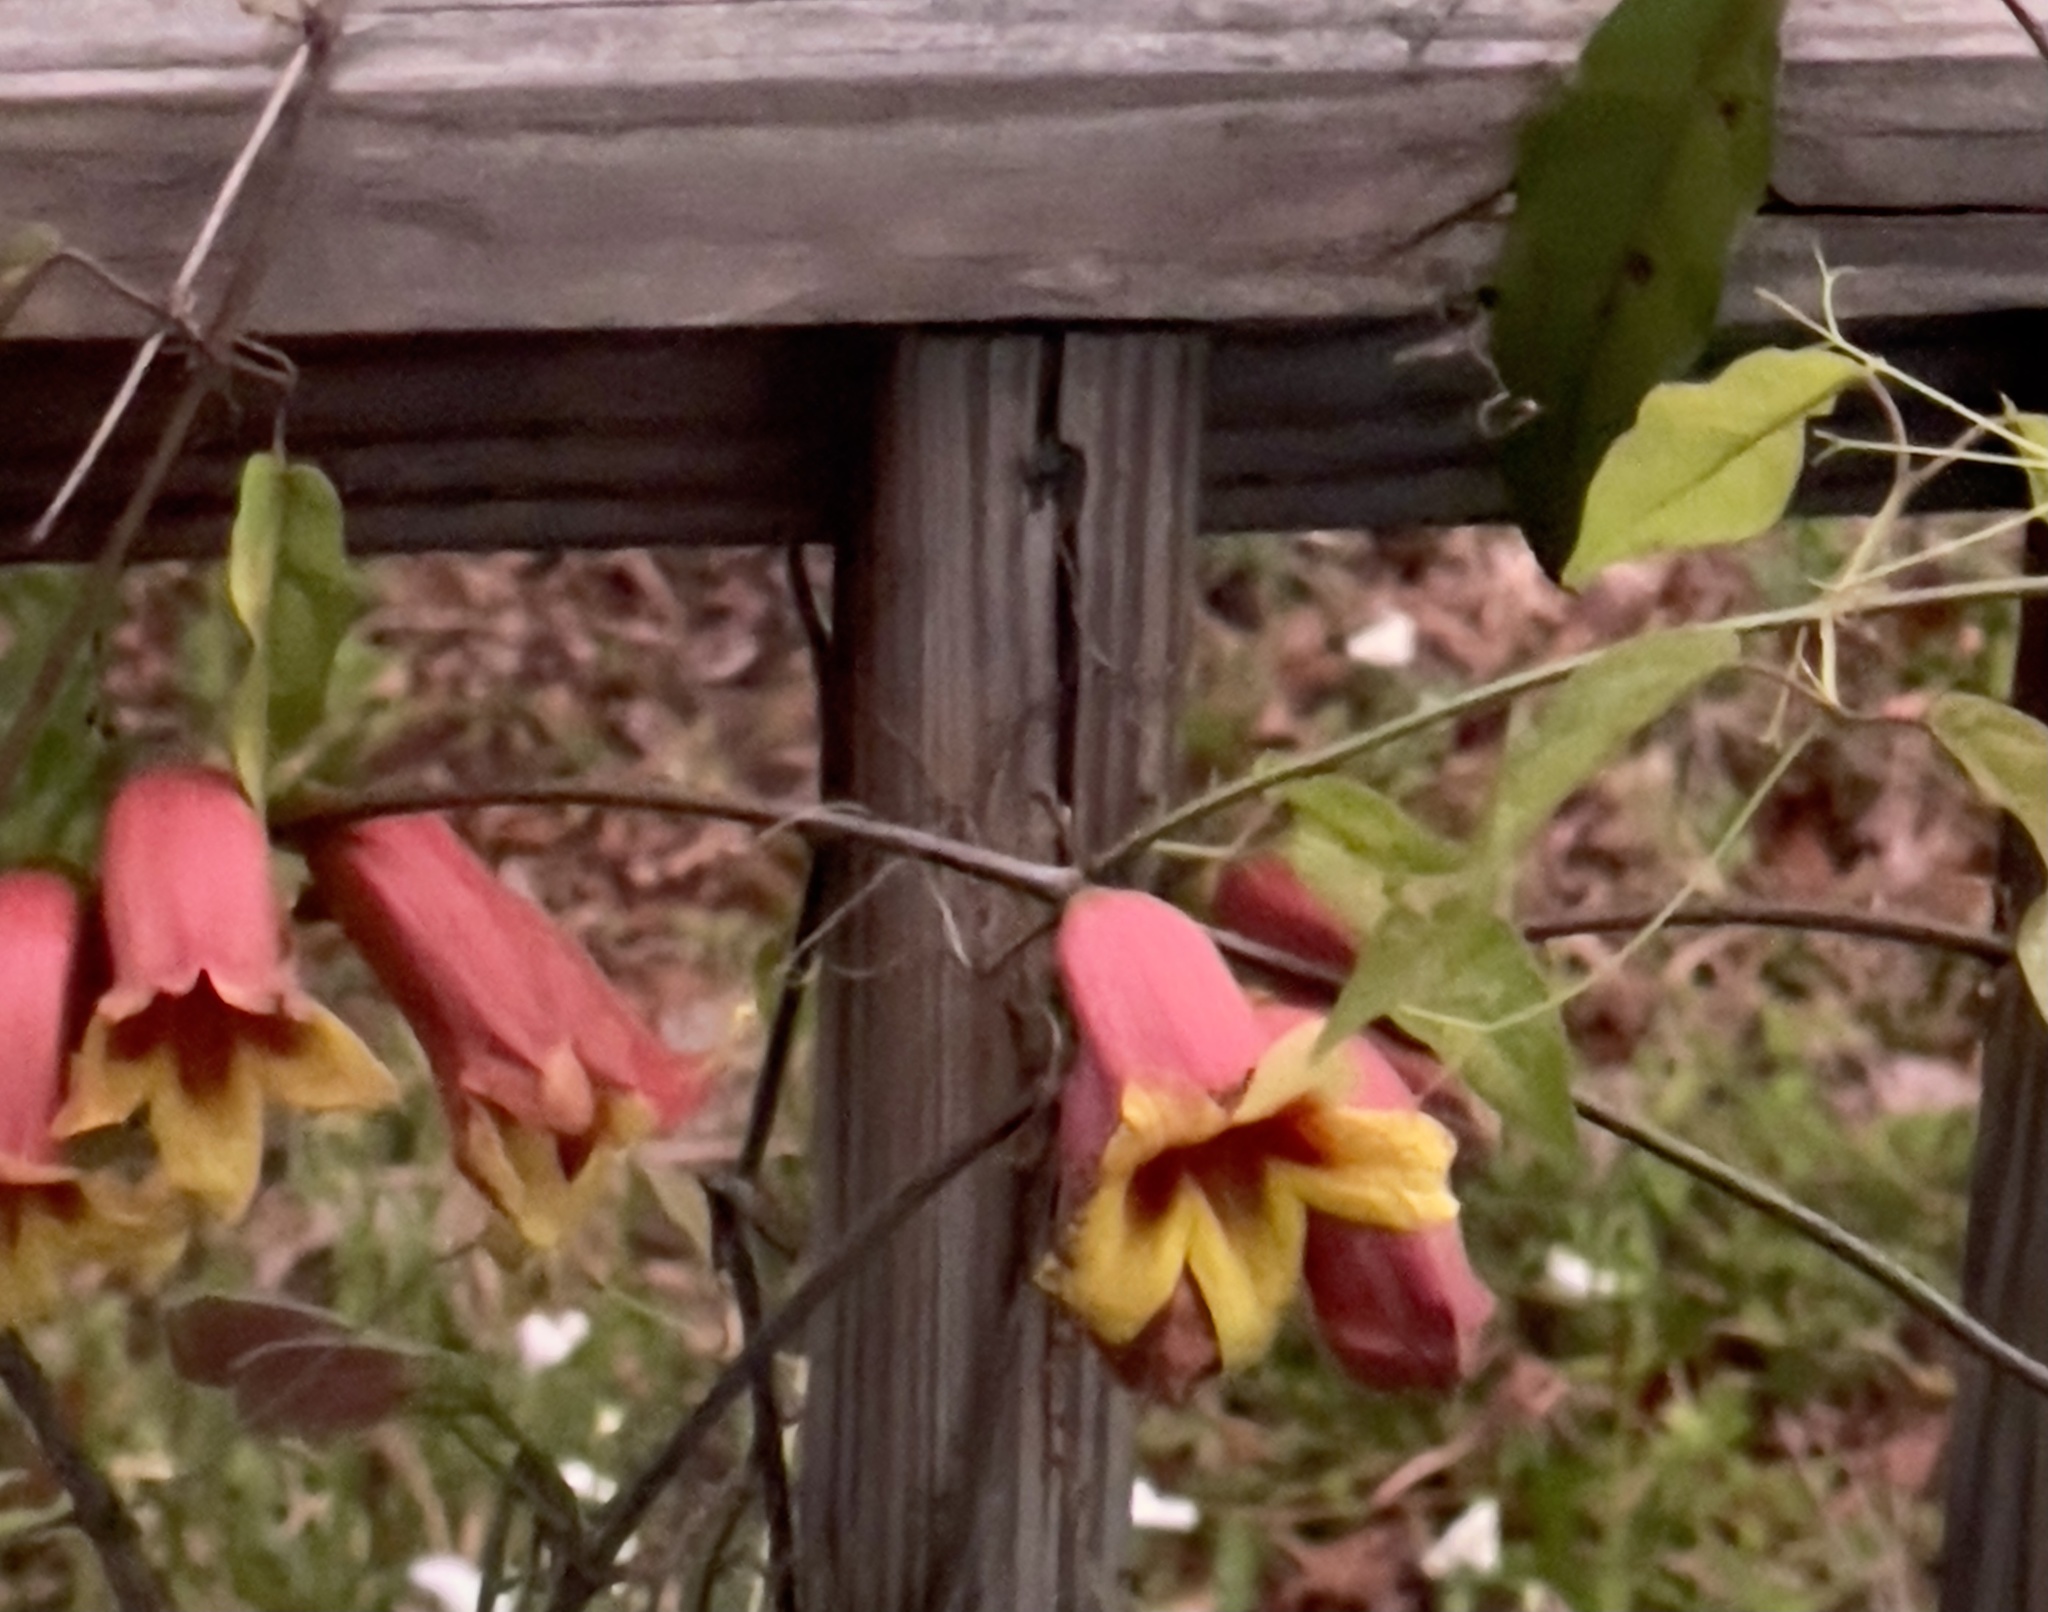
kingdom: Plantae
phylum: Tracheophyta
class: Magnoliopsida
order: Lamiales
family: Bignoniaceae
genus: Bignonia
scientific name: Bignonia capreolata
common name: Crossvine
